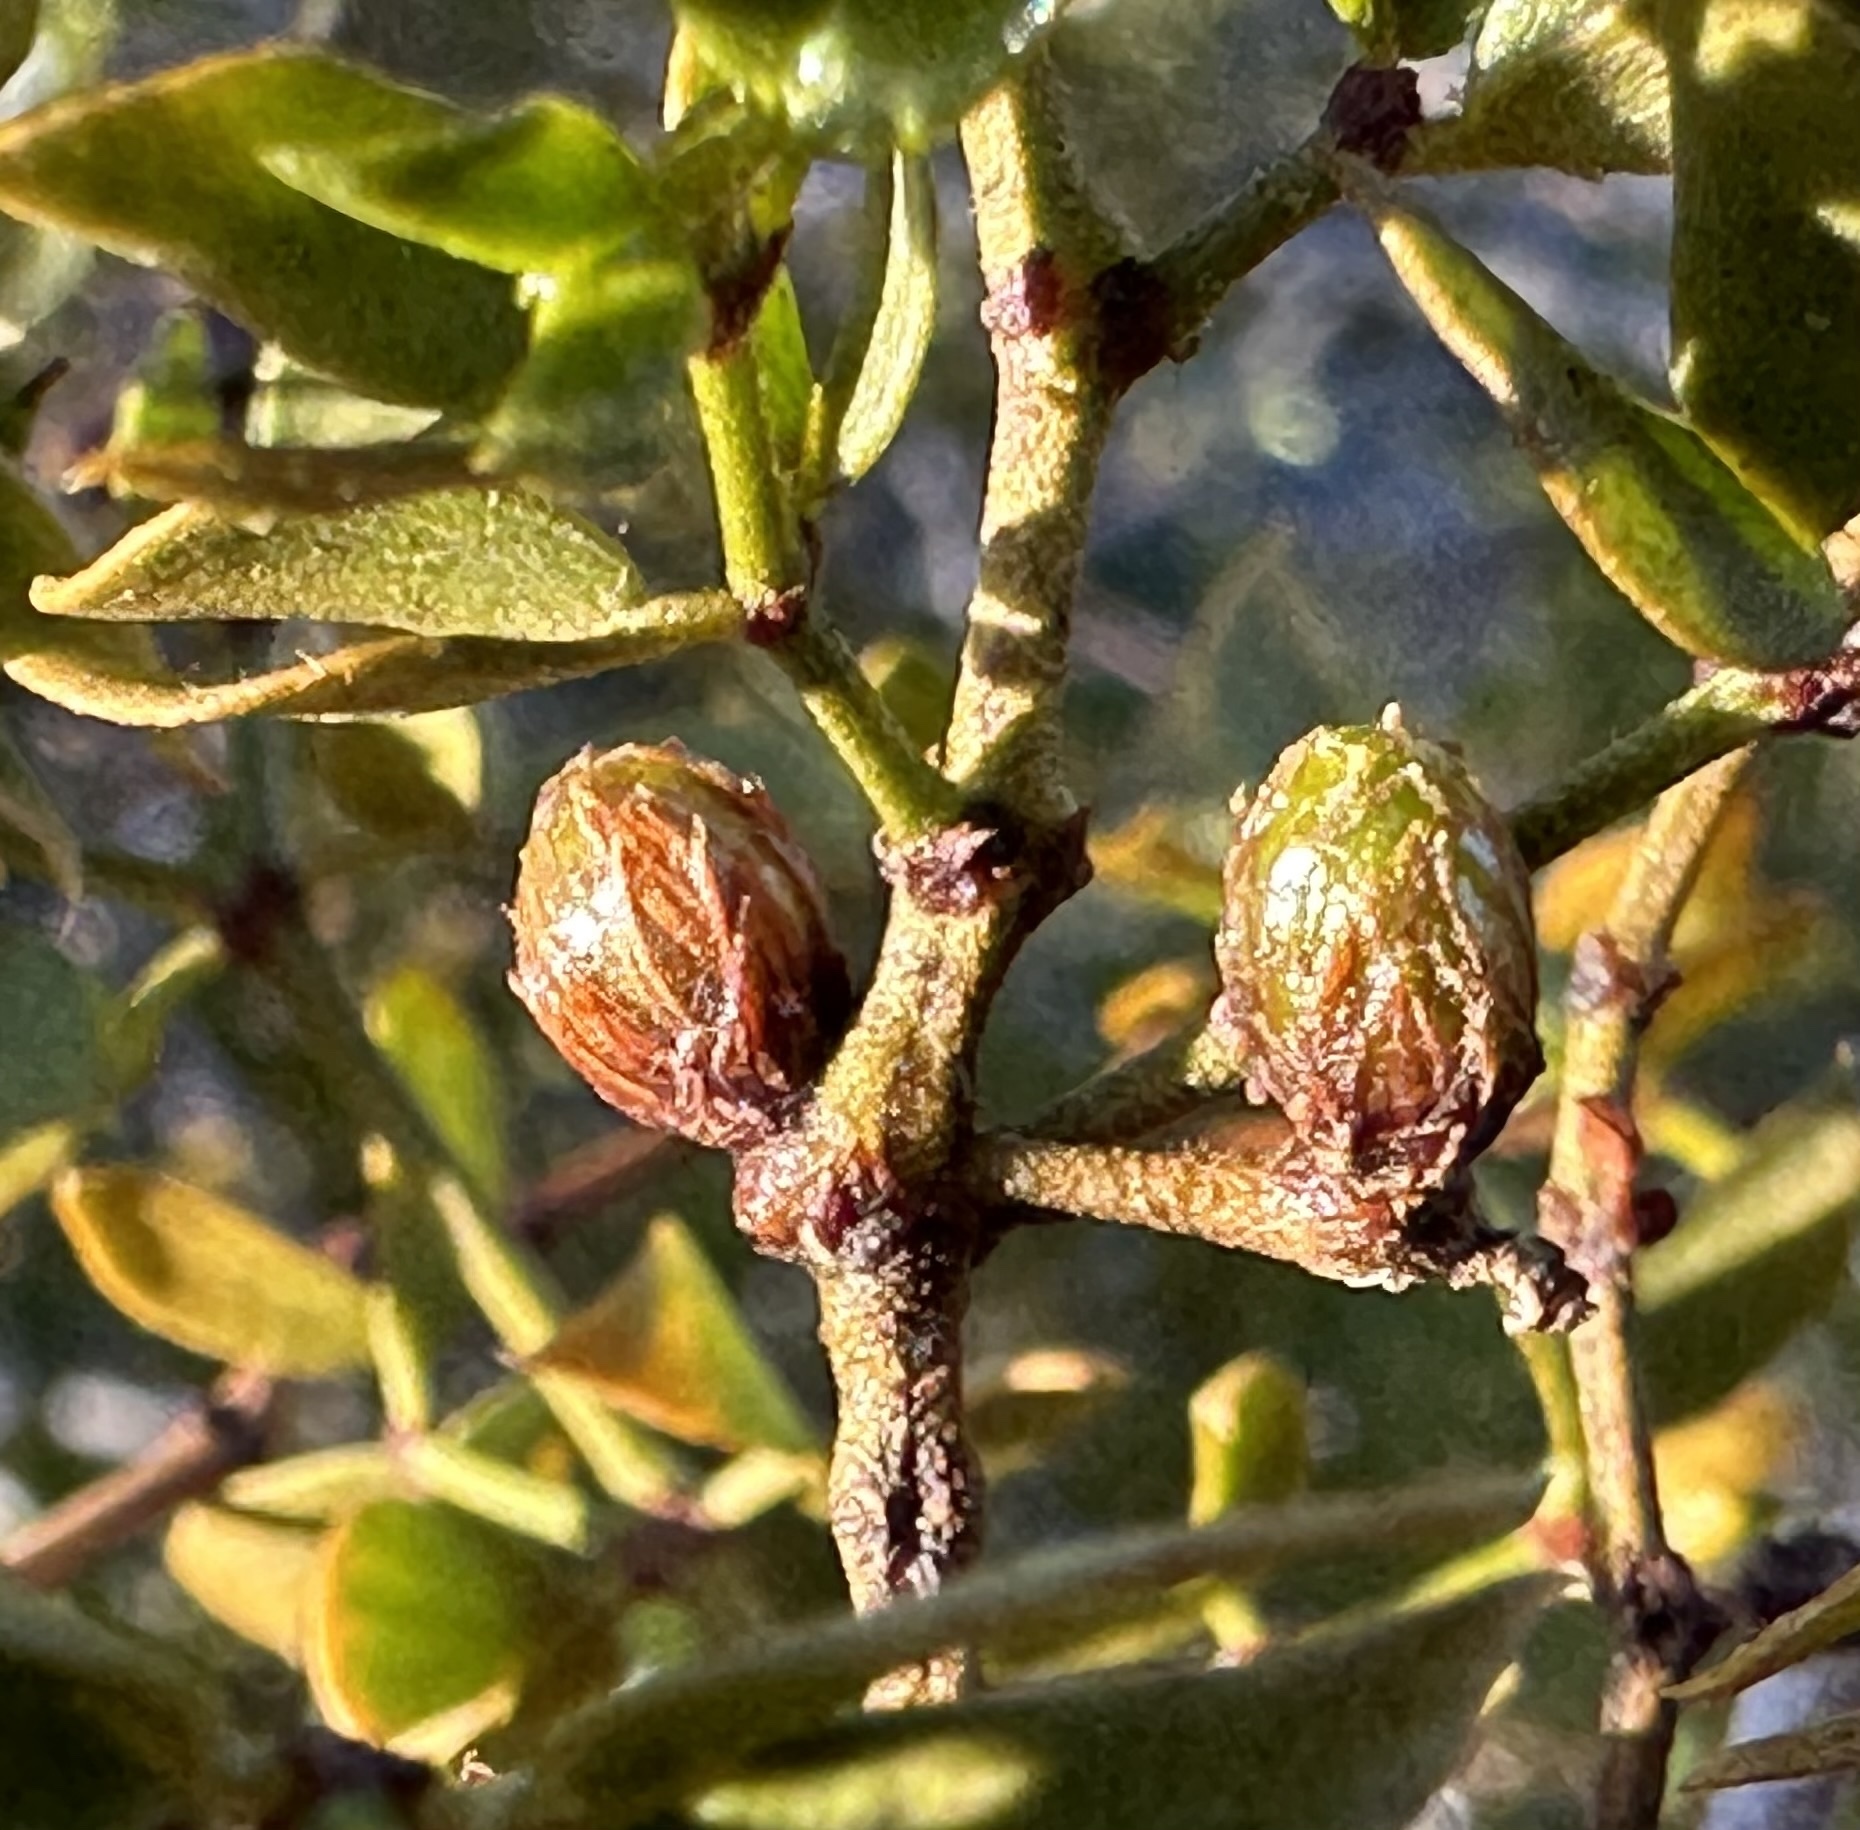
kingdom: Animalia
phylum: Arthropoda
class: Insecta
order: Diptera
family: Cecidomyiidae
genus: Asphondylia
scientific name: Asphondylia resinosa
